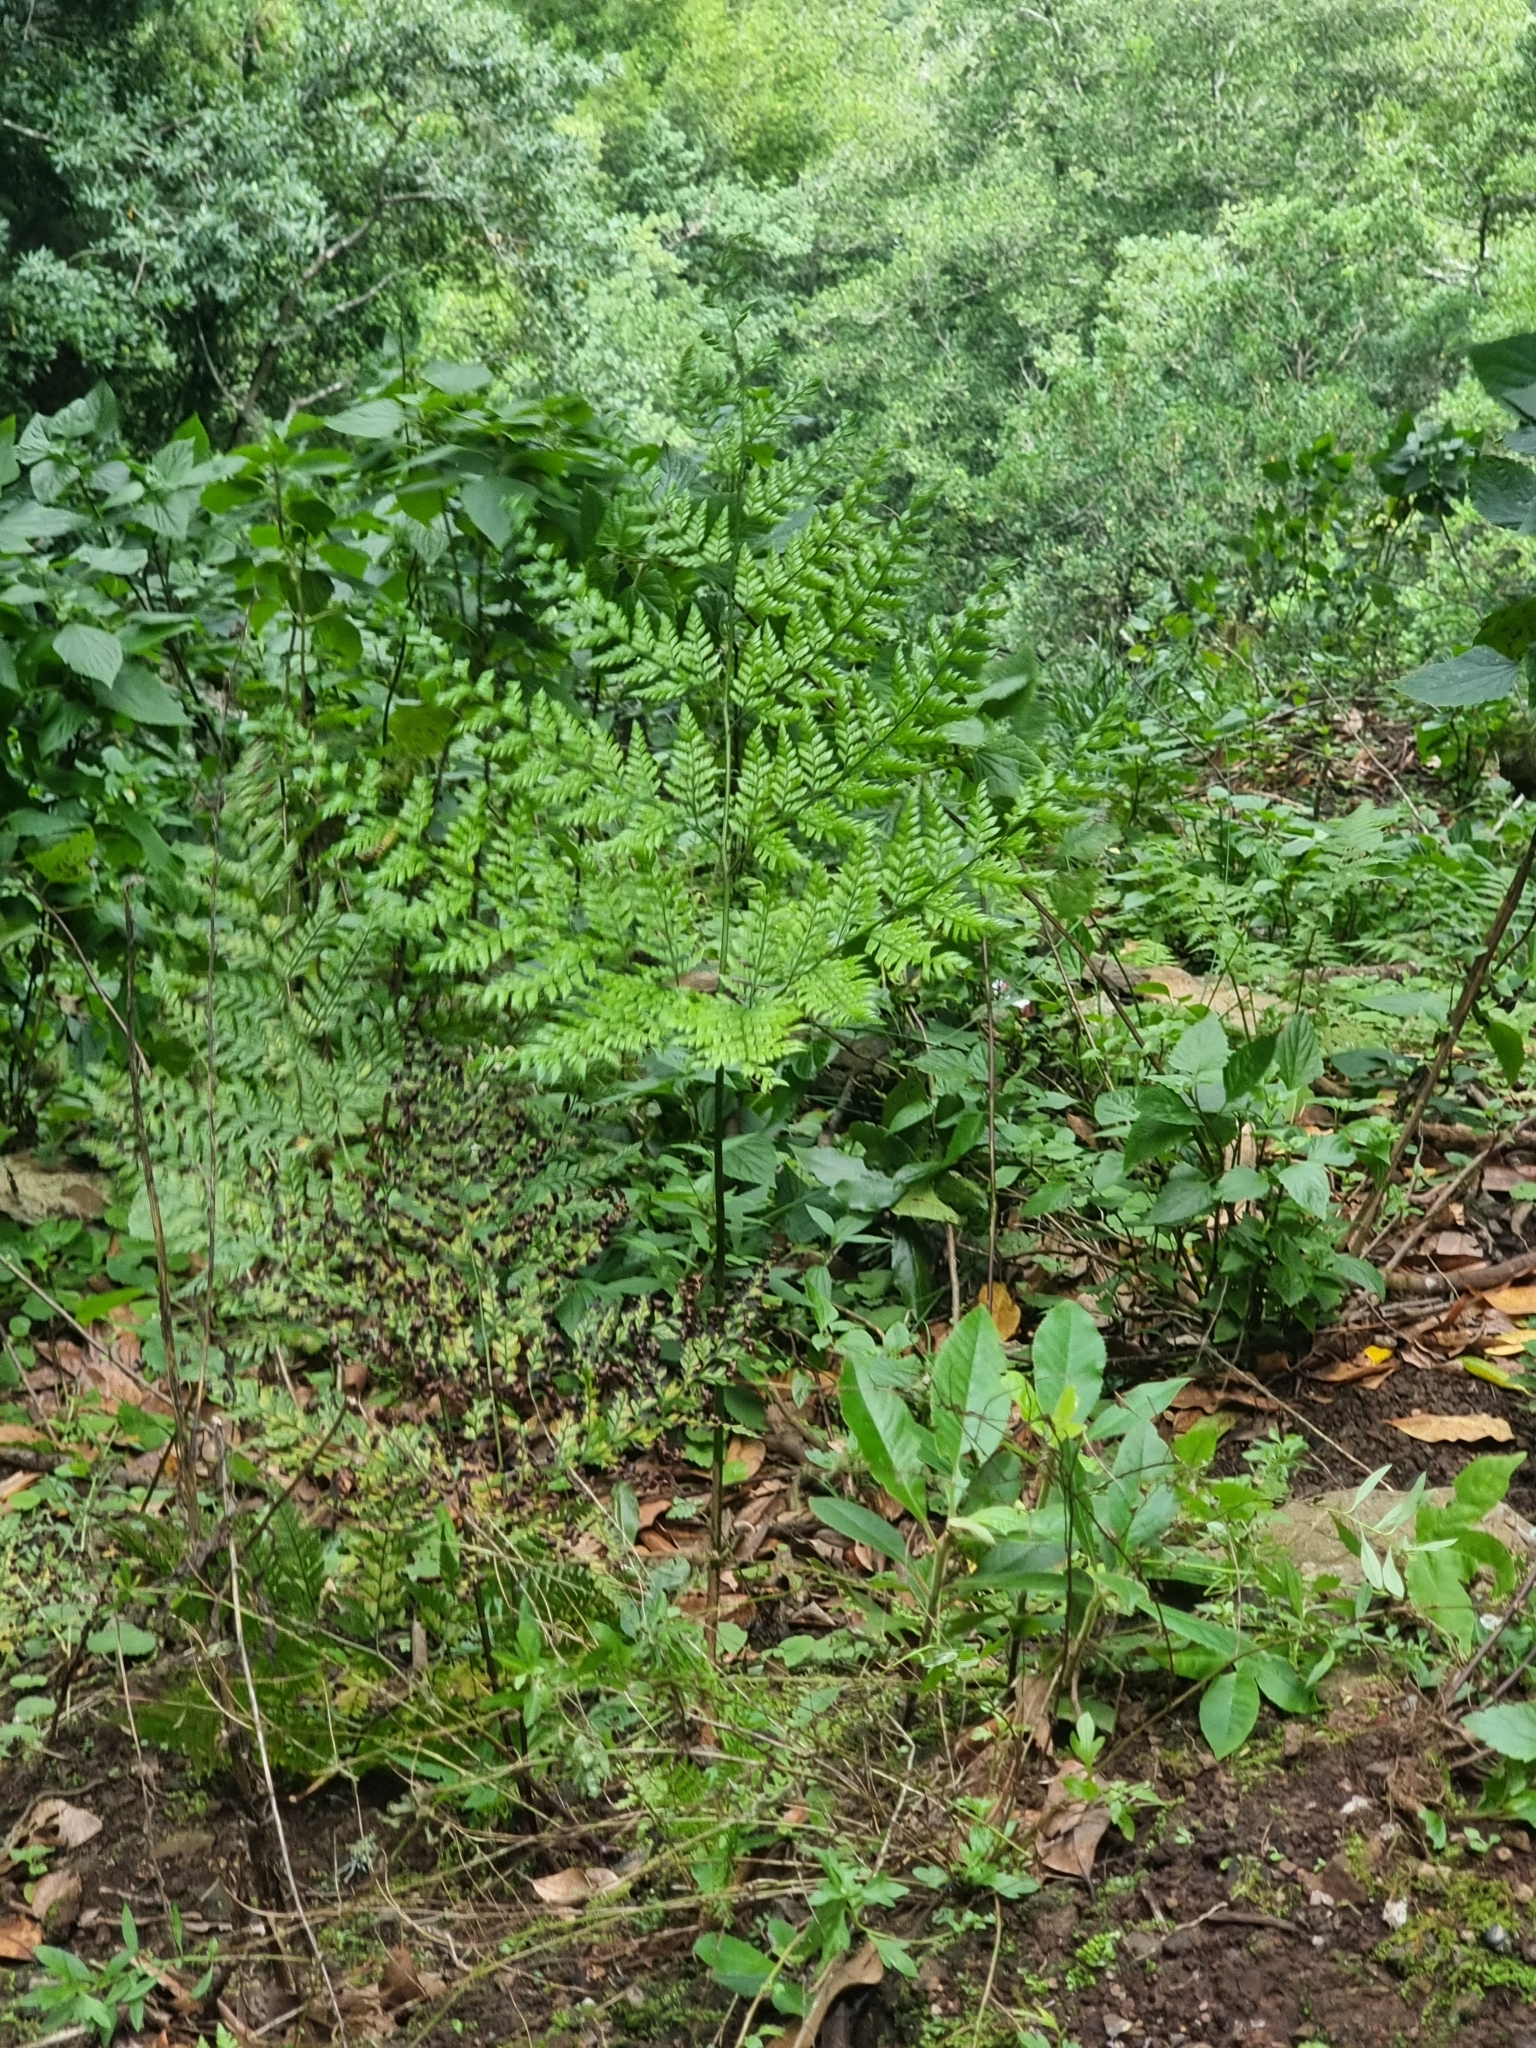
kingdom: Plantae
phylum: Tracheophyta
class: Polypodiopsida
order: Polypodiales
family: Dryopteridaceae
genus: Arachniodes
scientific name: Arachniodes webbiana
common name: Madeira holly fern
